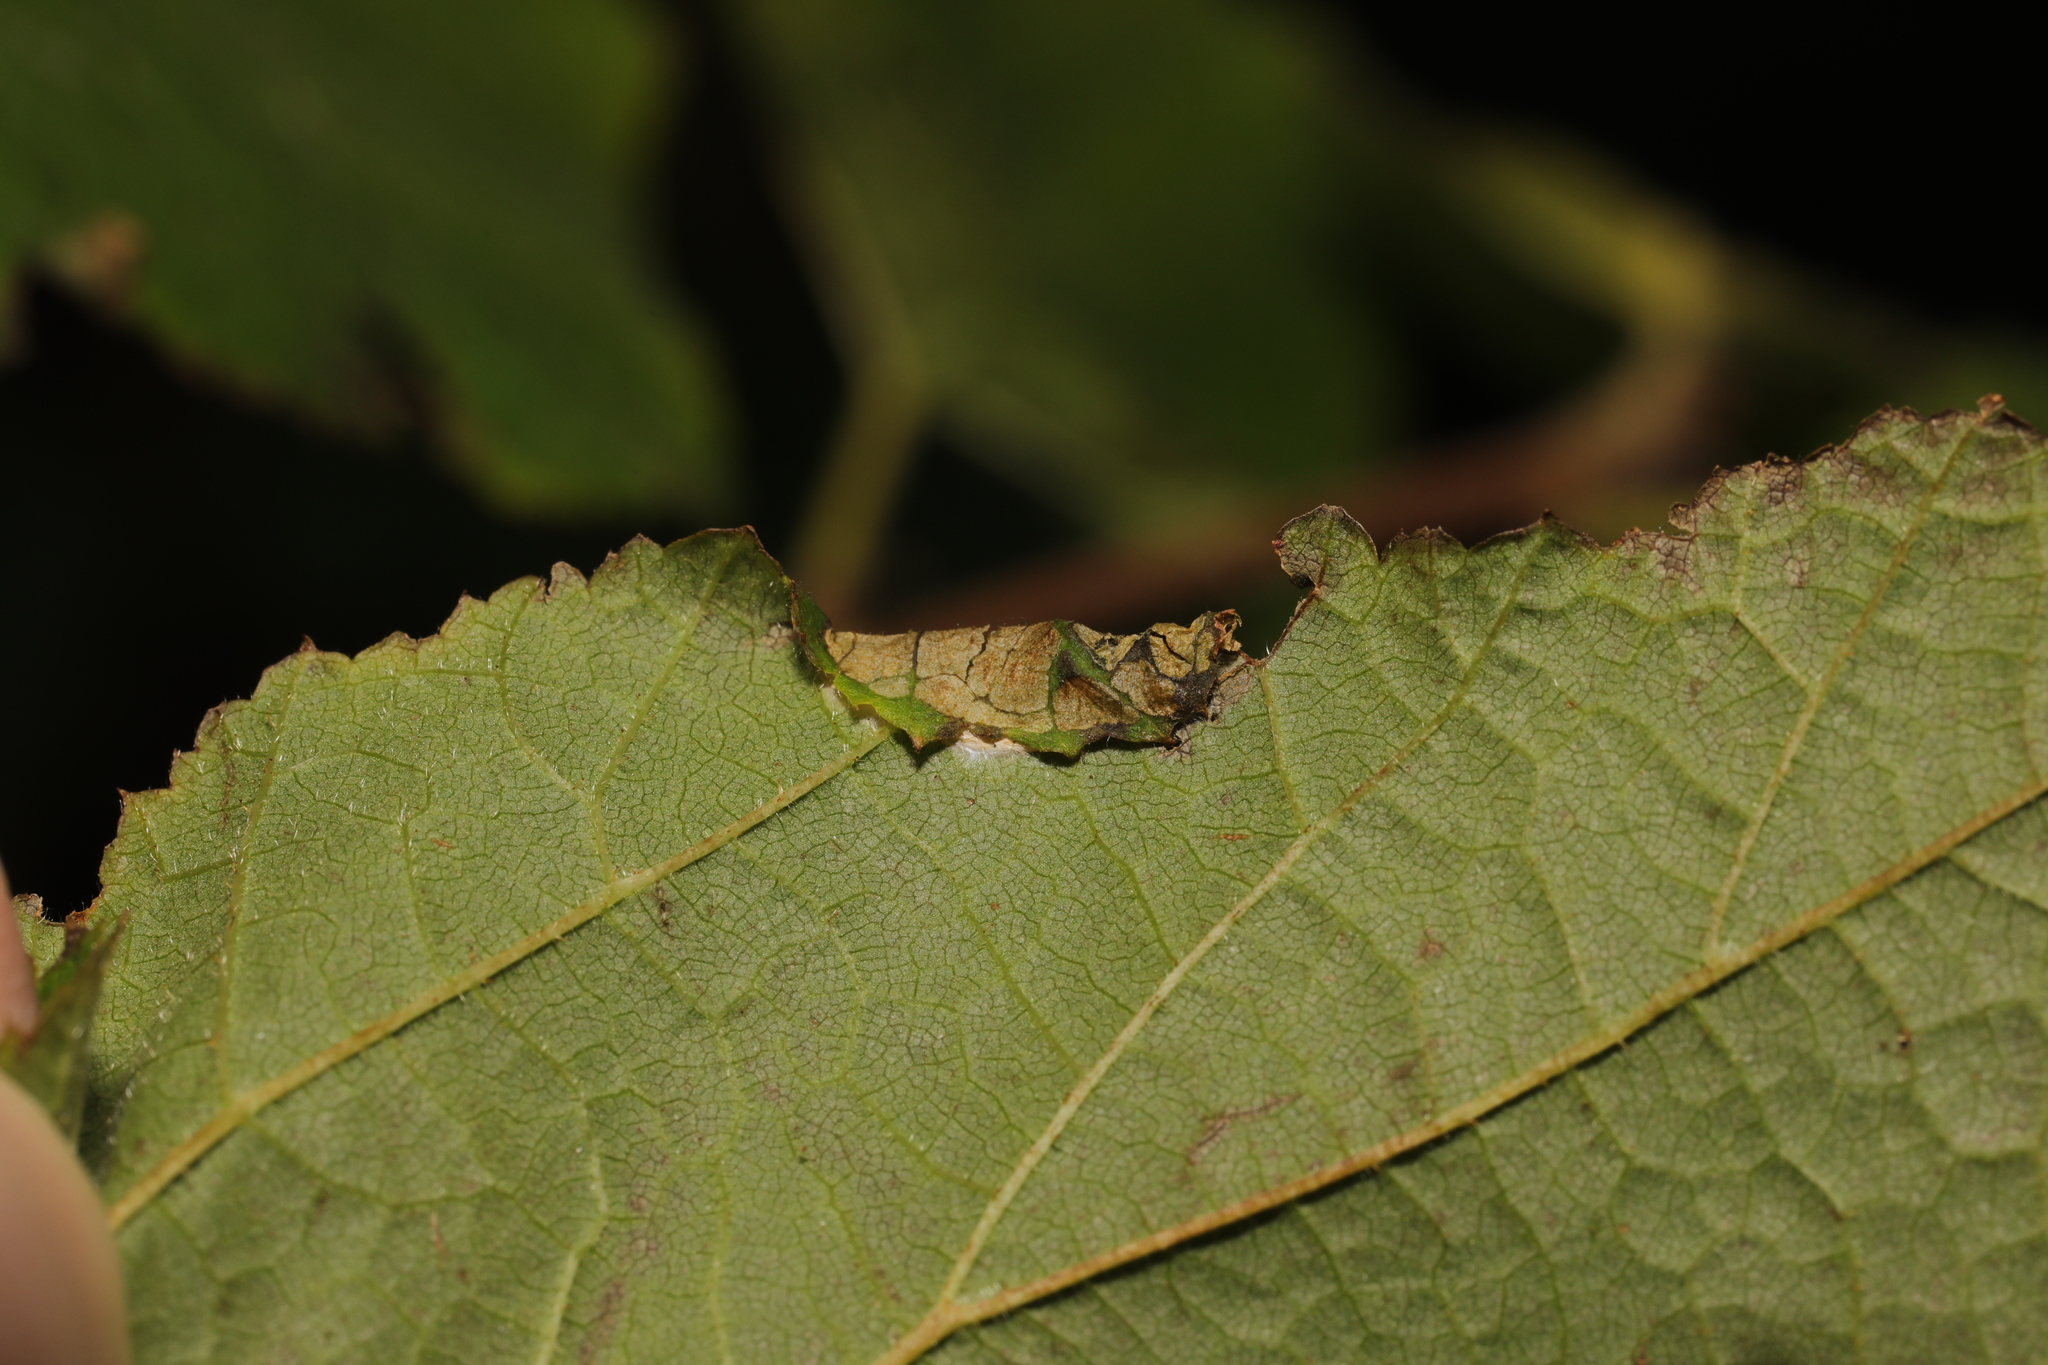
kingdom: Animalia
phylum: Arthropoda
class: Insecta
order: Lepidoptera
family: Gracillariidae
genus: Parornix
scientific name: Parornix devoniella
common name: Hazel slender
